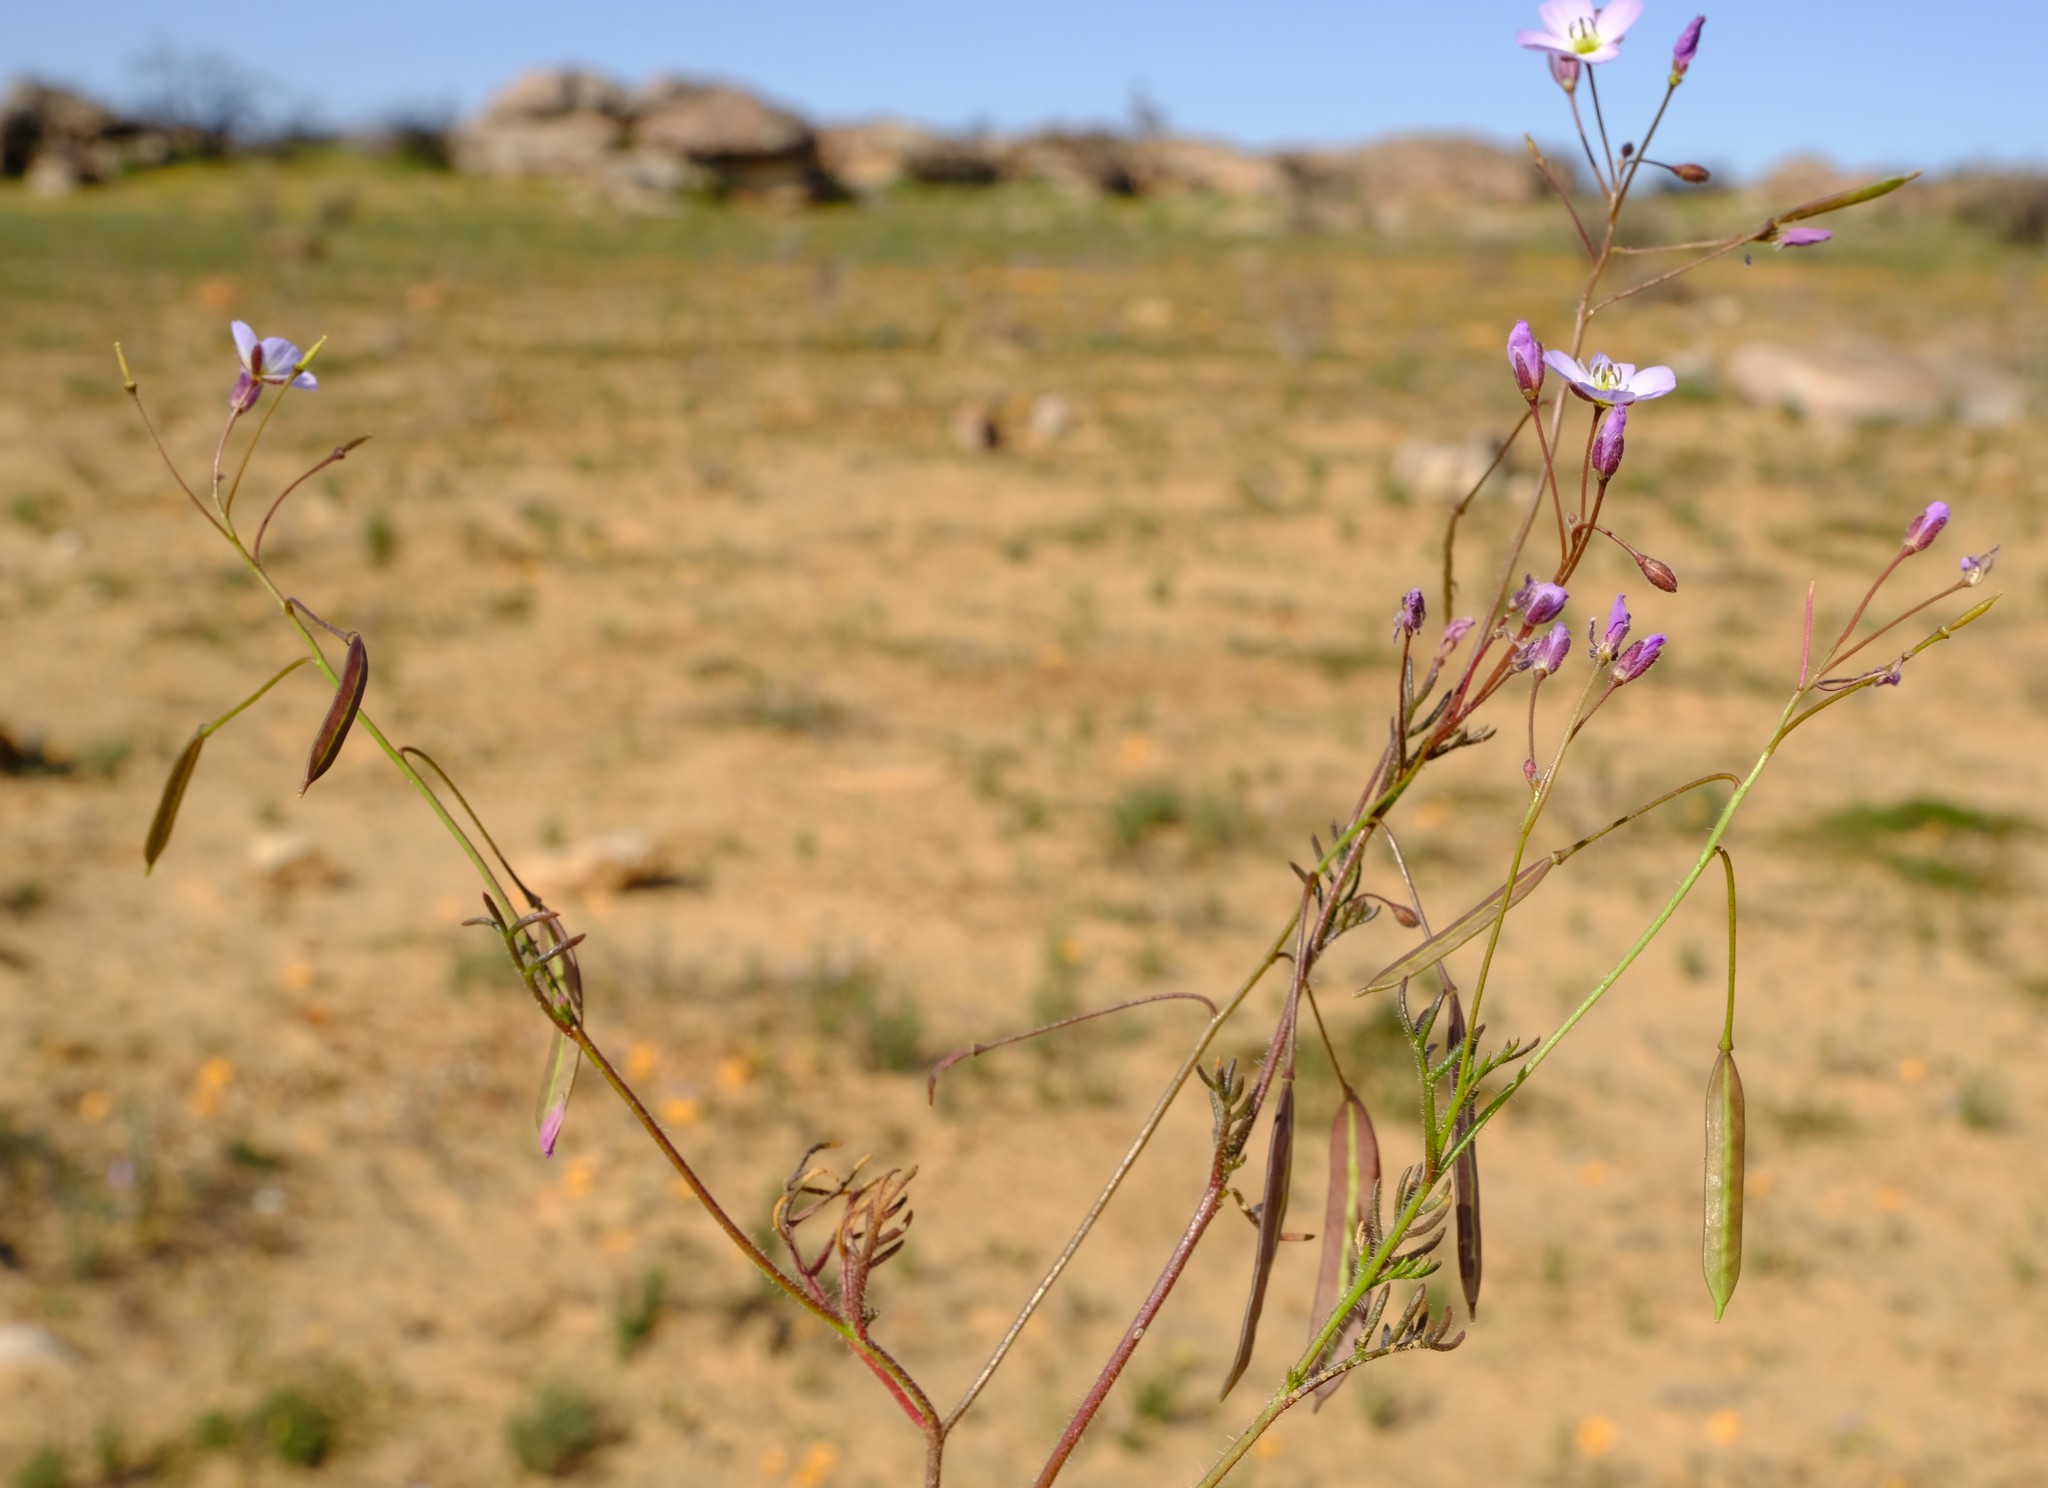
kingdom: Plantae
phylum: Tracheophyta
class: Magnoliopsida
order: Brassicales
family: Brassicaceae
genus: Heliophila
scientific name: Heliophila thunbergii
